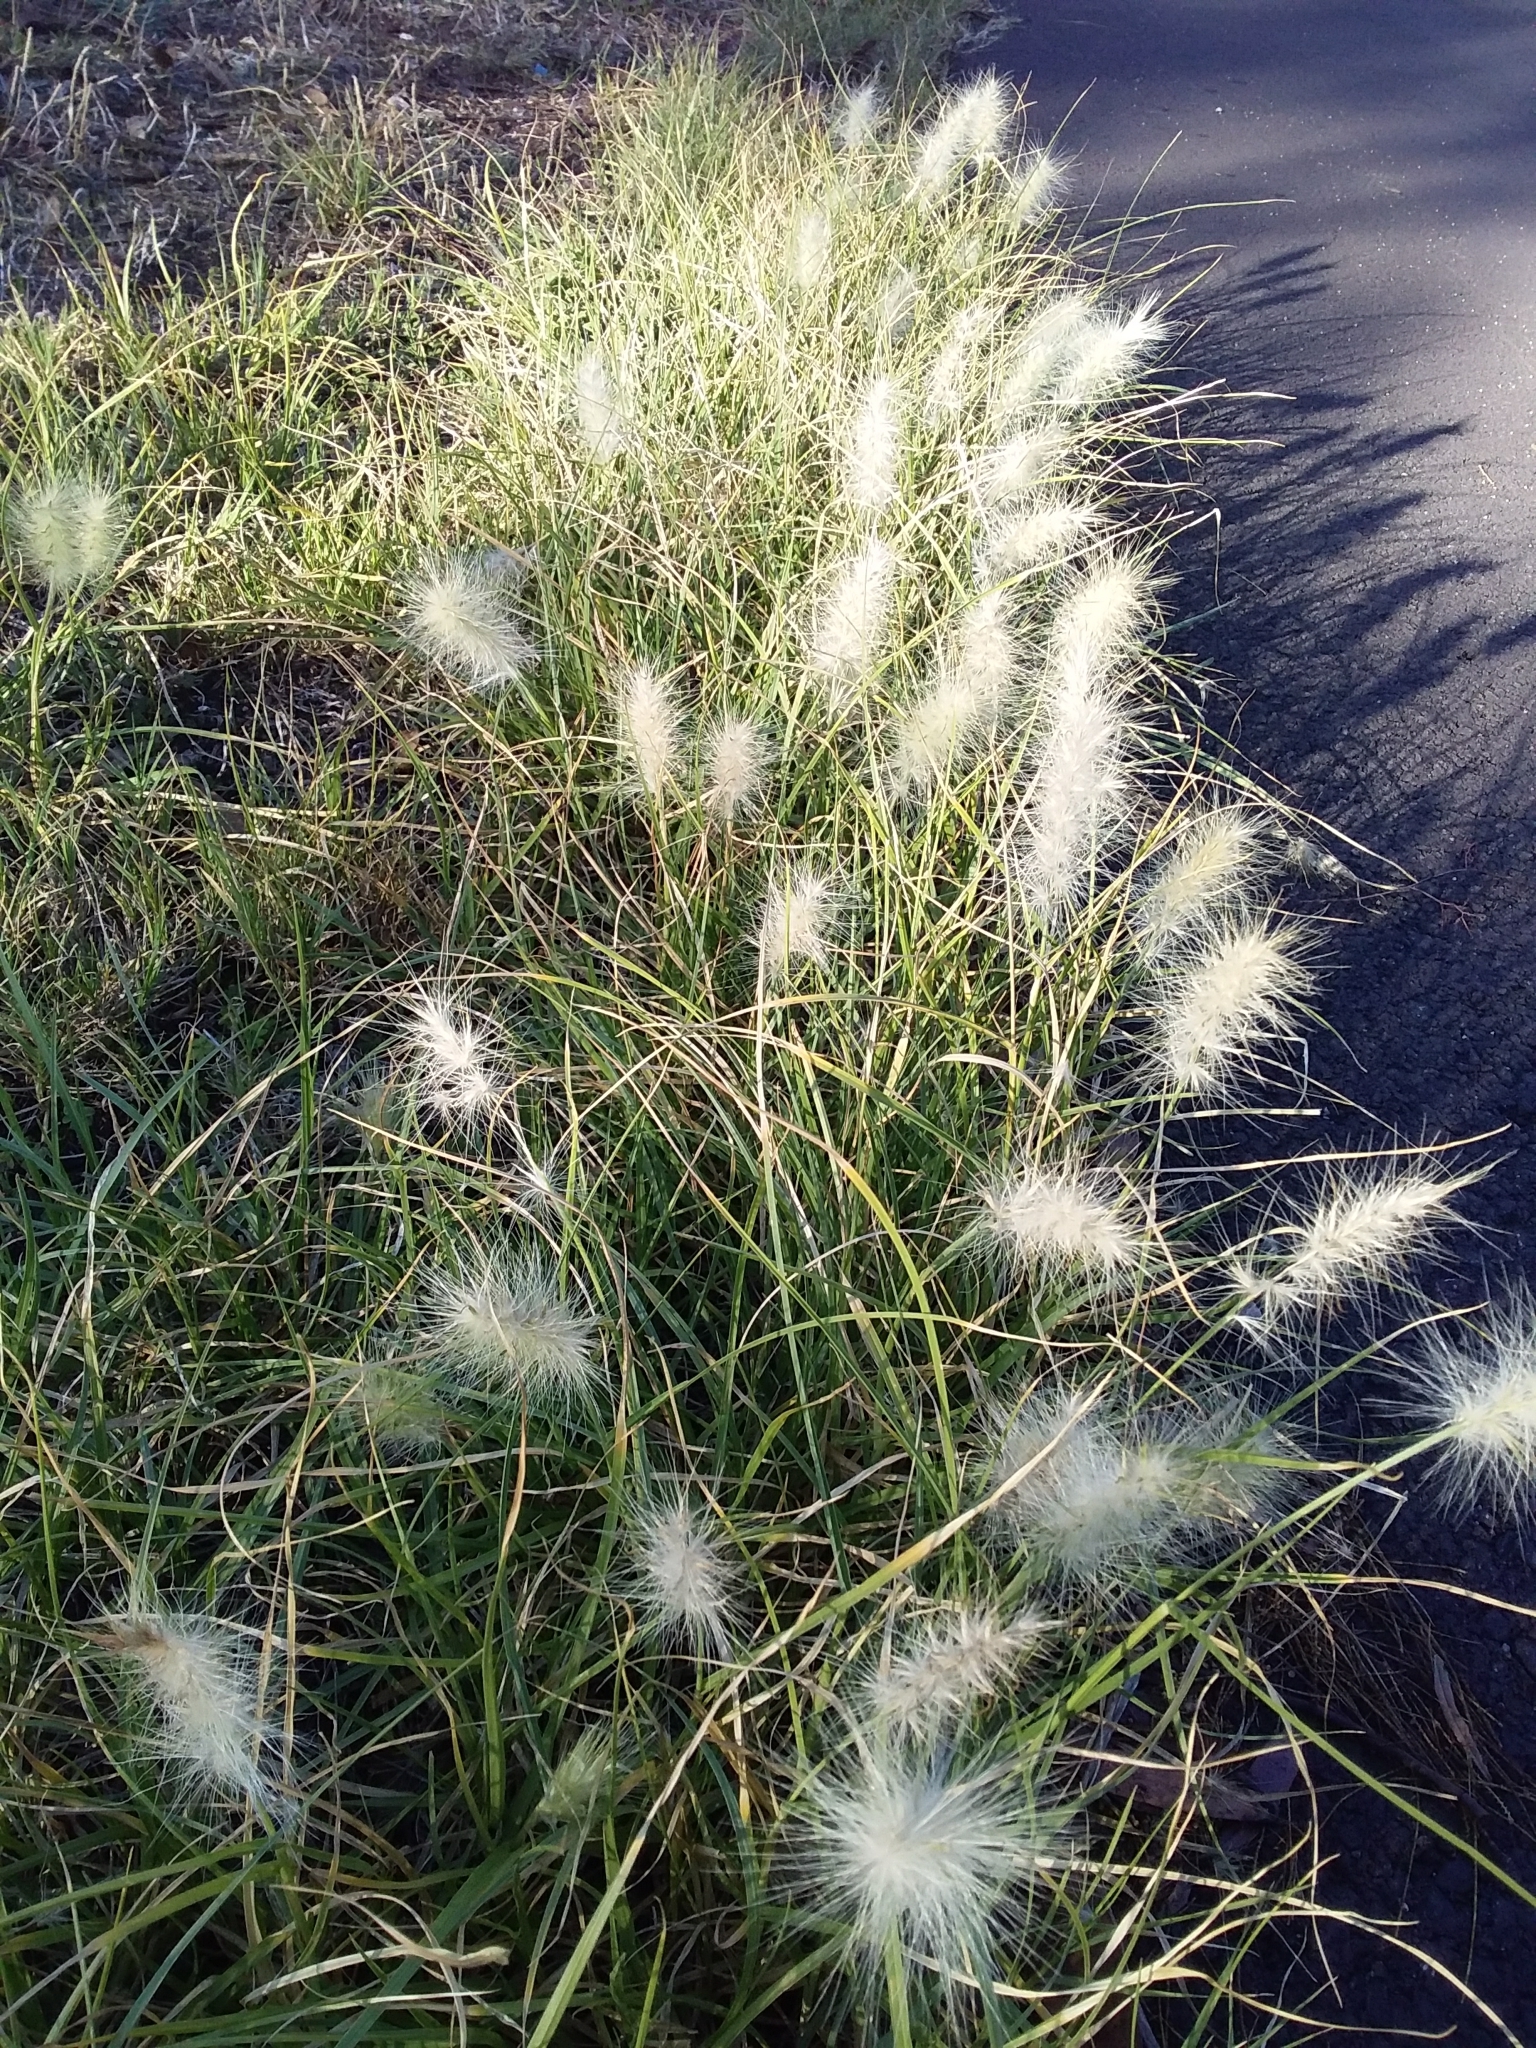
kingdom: Plantae
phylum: Tracheophyta
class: Liliopsida
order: Poales
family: Poaceae
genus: Cenchrus
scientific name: Cenchrus longisetus
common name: Feathertop
